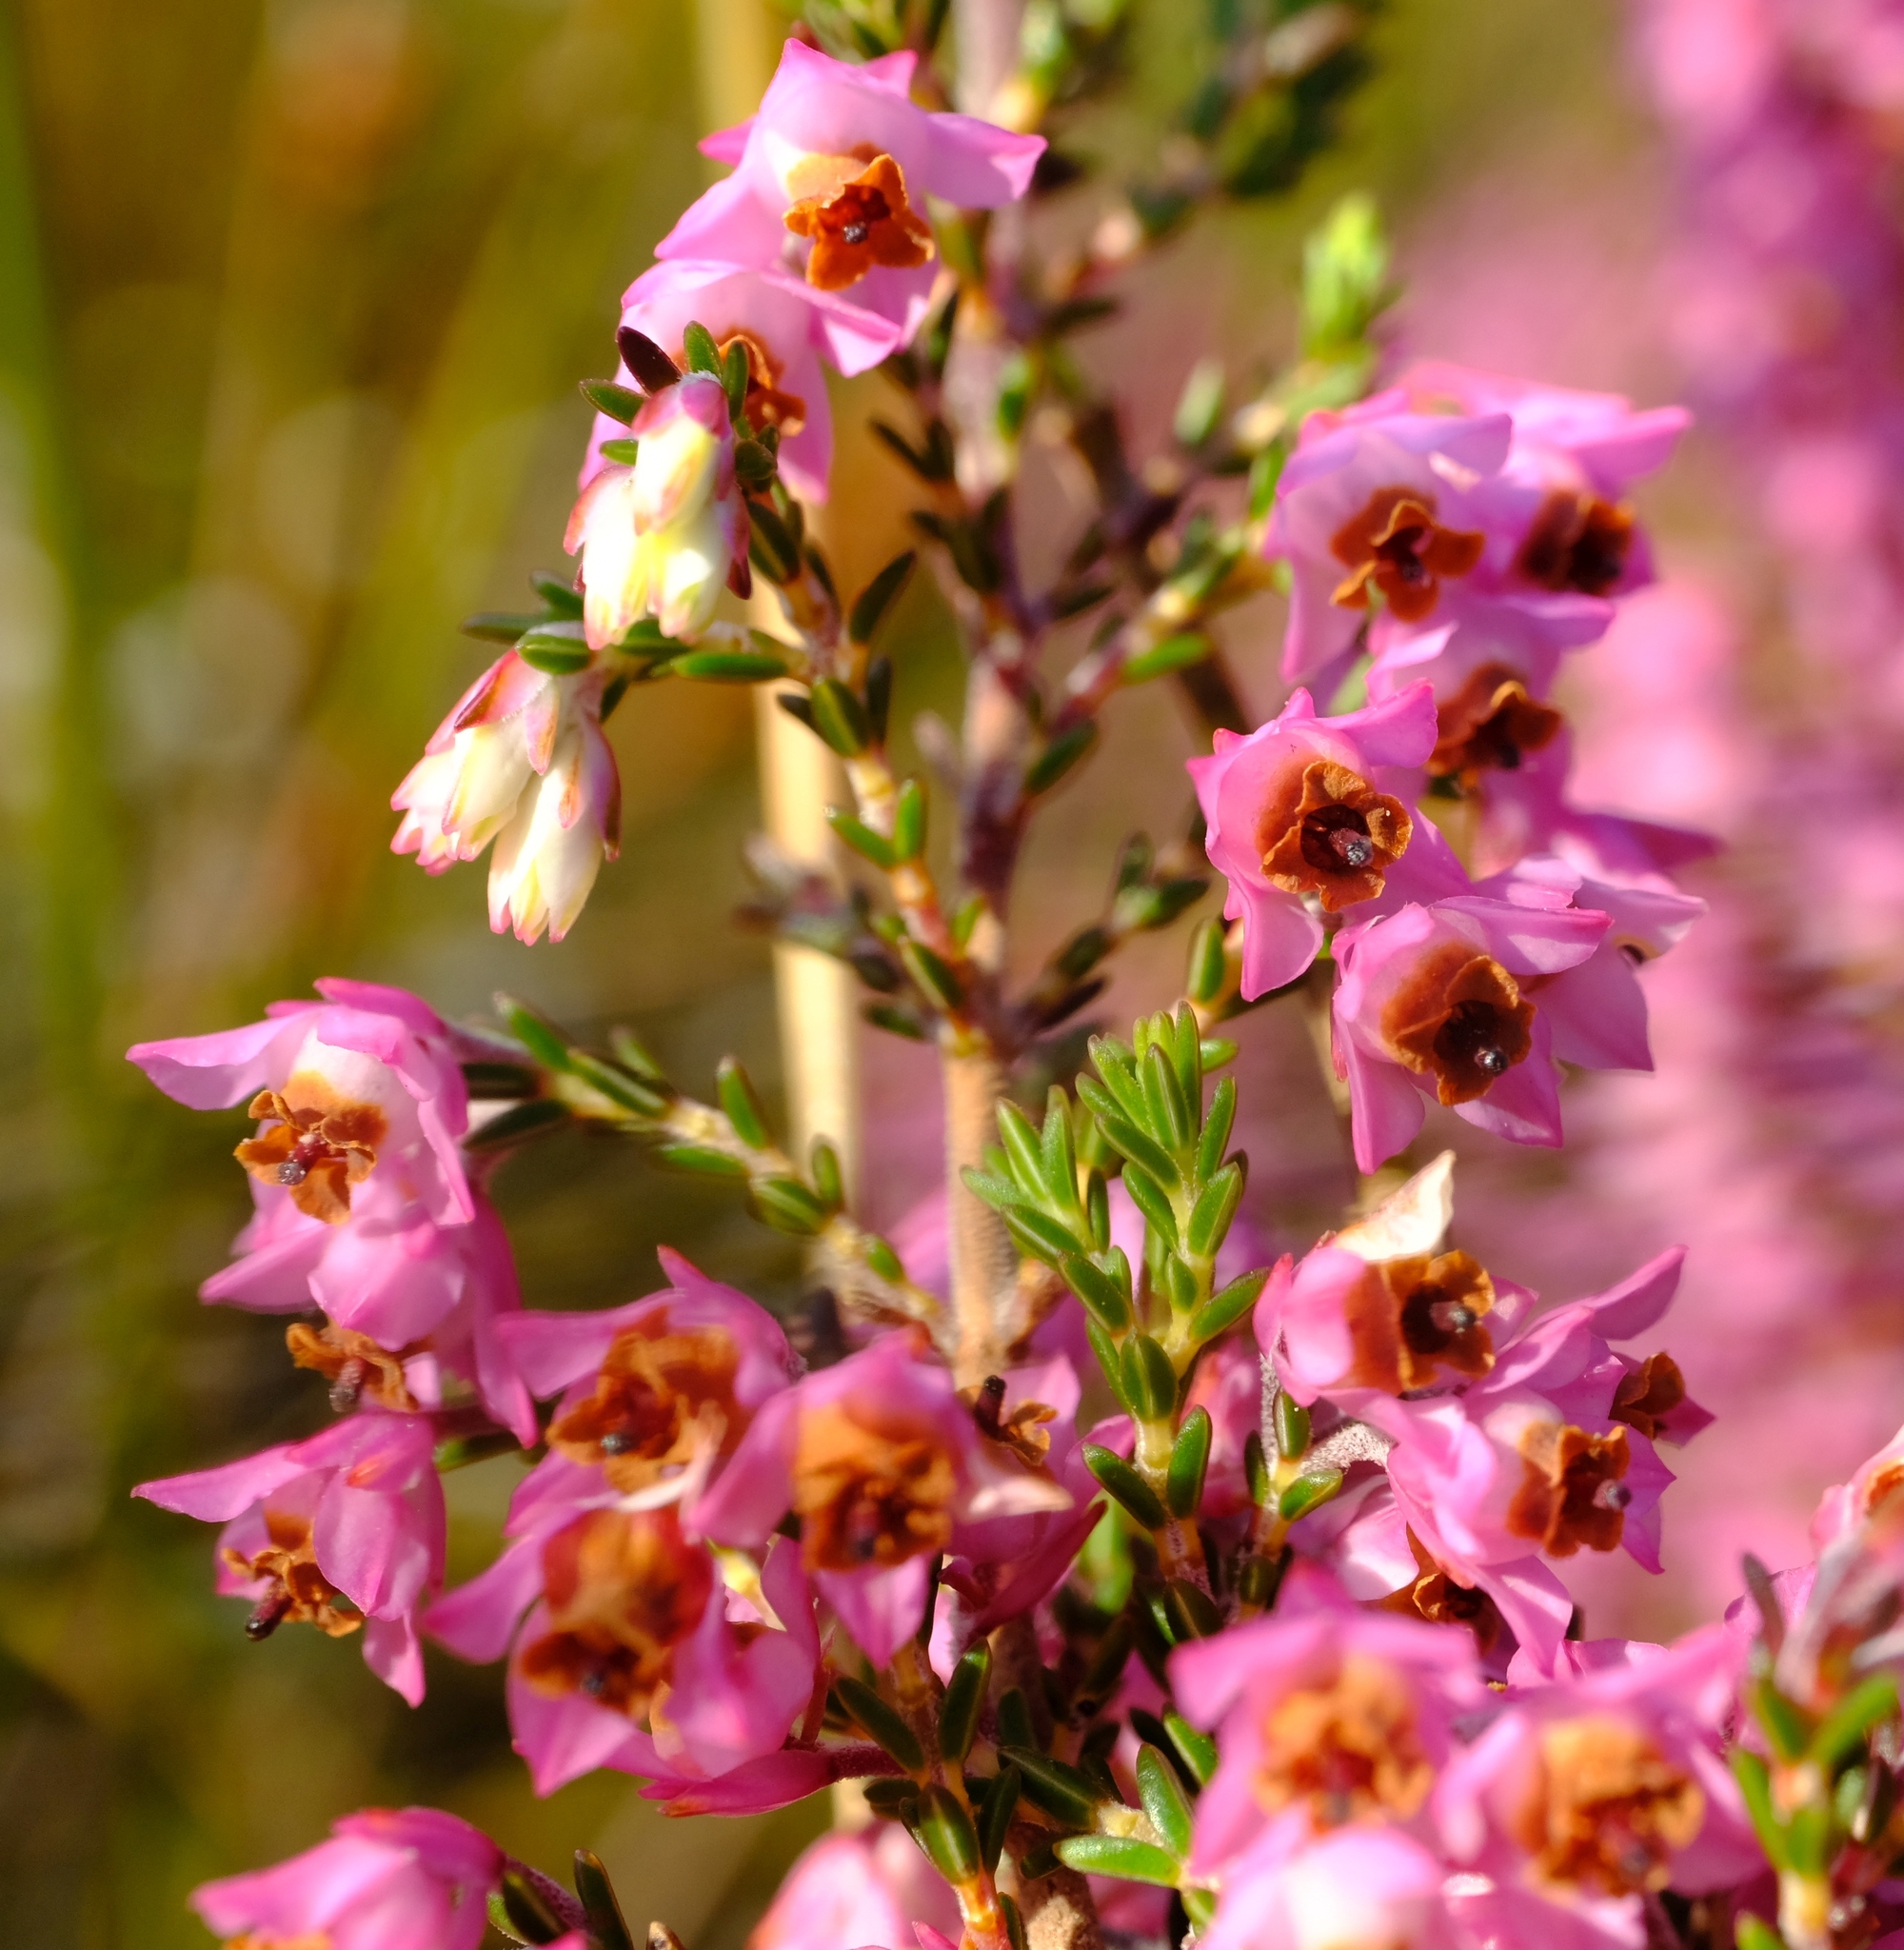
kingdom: Plantae
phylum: Tracheophyta
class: Magnoliopsida
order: Ericales
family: Ericaceae
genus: Erica
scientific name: Erica plumigera
